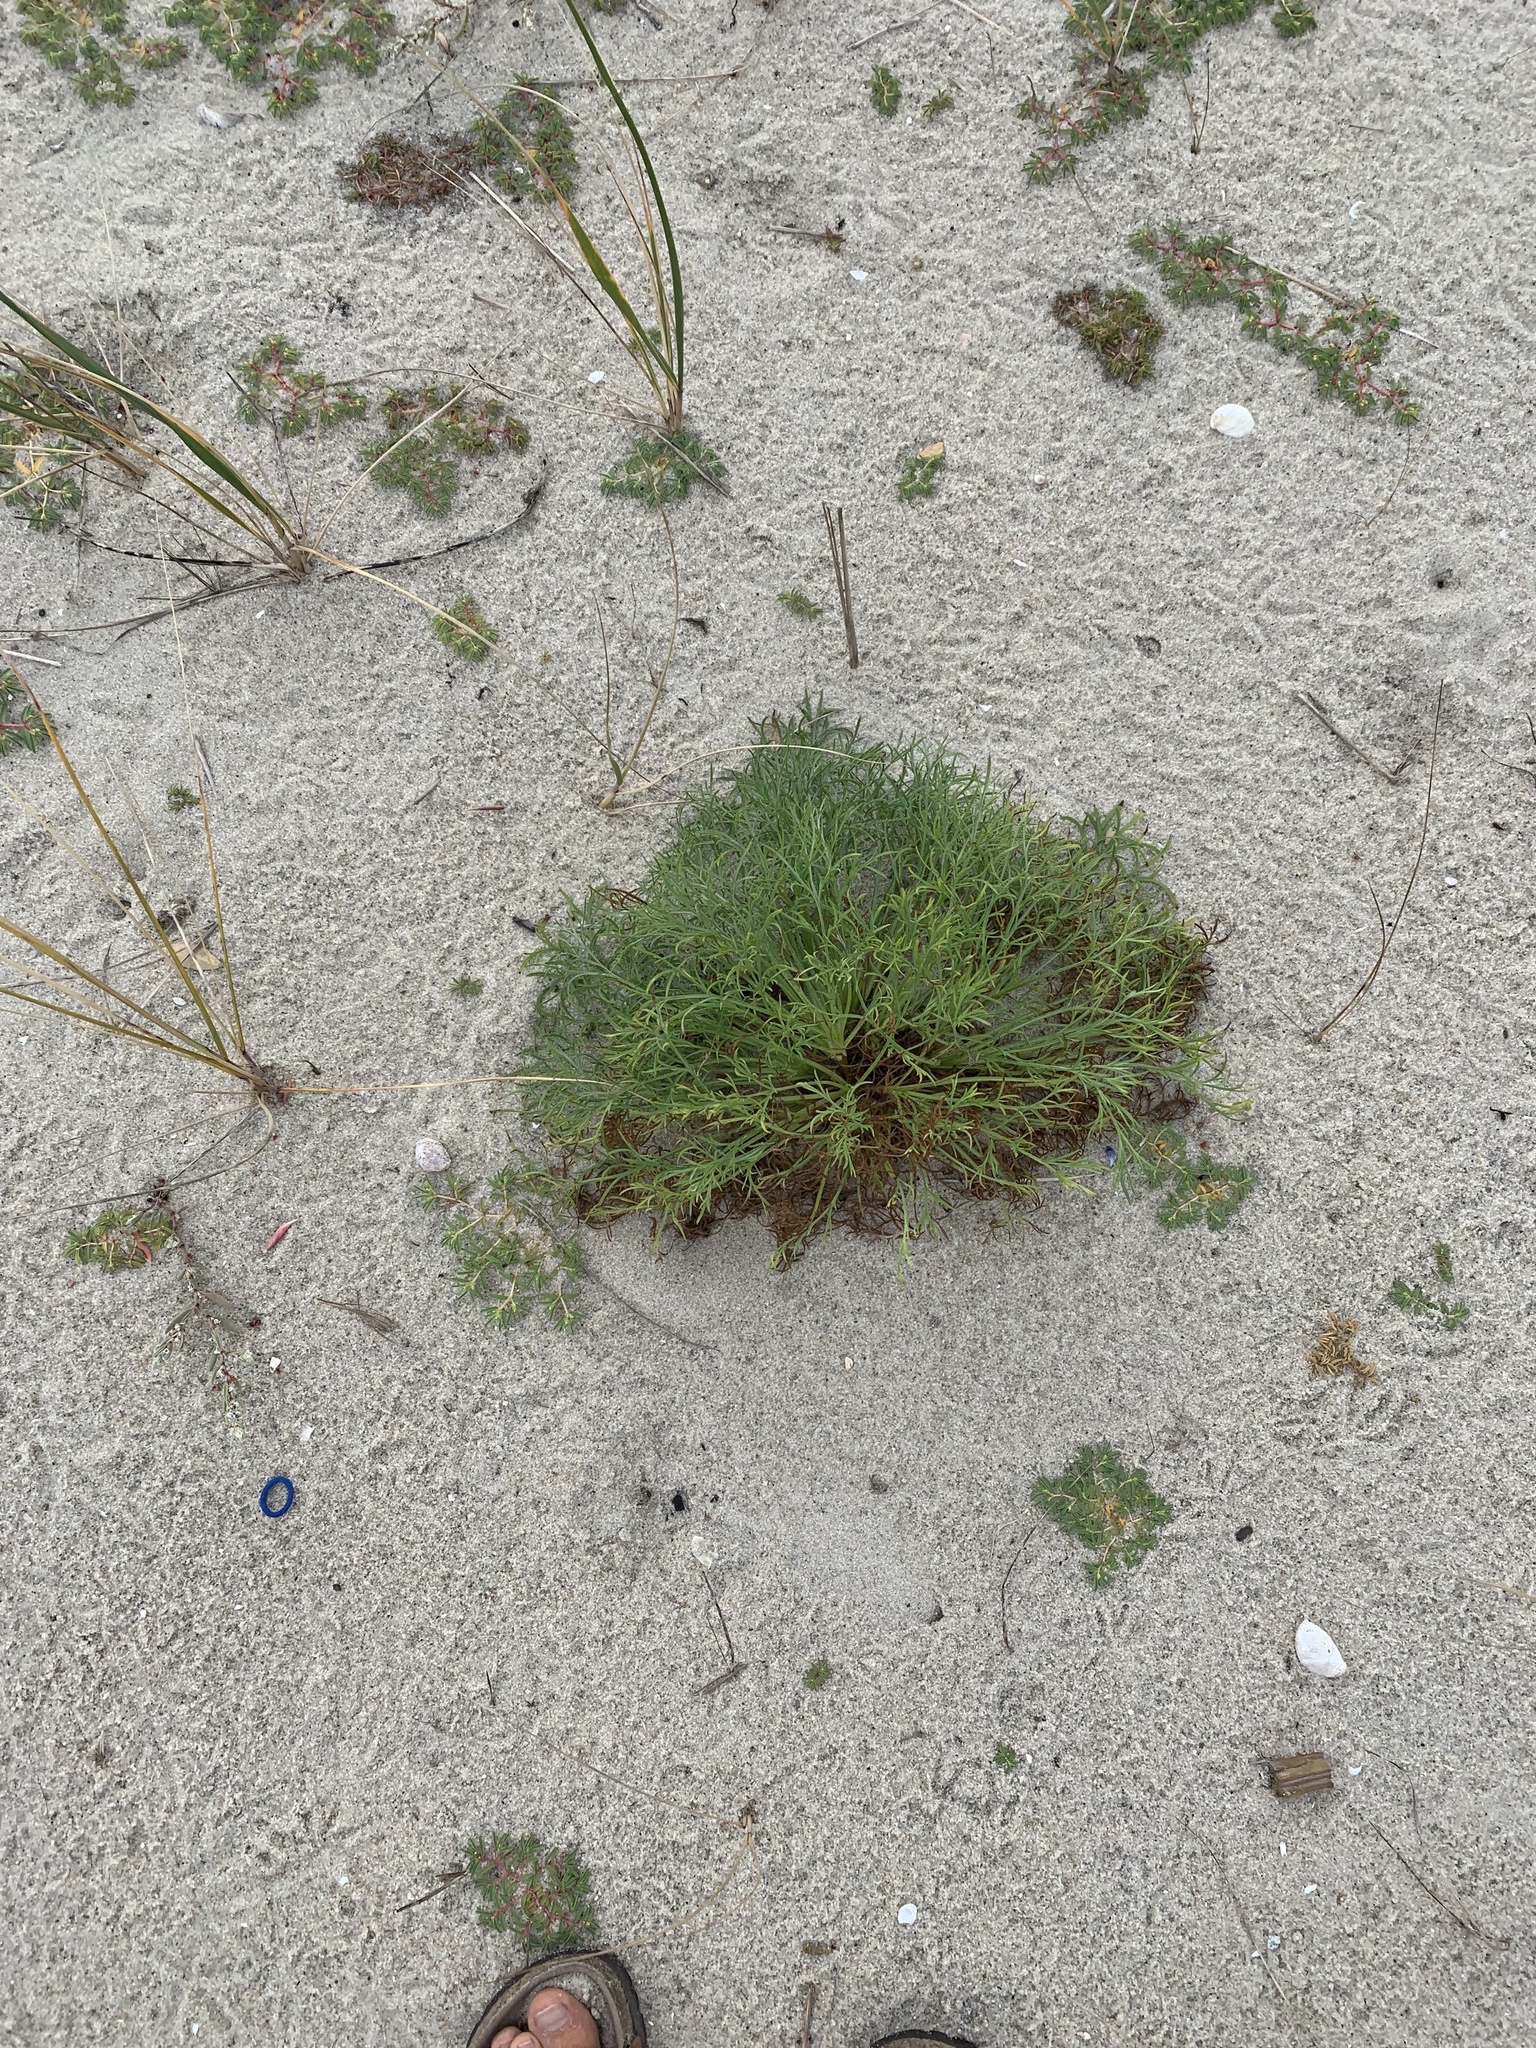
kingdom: Plantae
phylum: Tracheophyta
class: Magnoliopsida
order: Asterales
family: Asteraceae
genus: Artemisia
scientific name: Artemisia campestris
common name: Field wormwood
